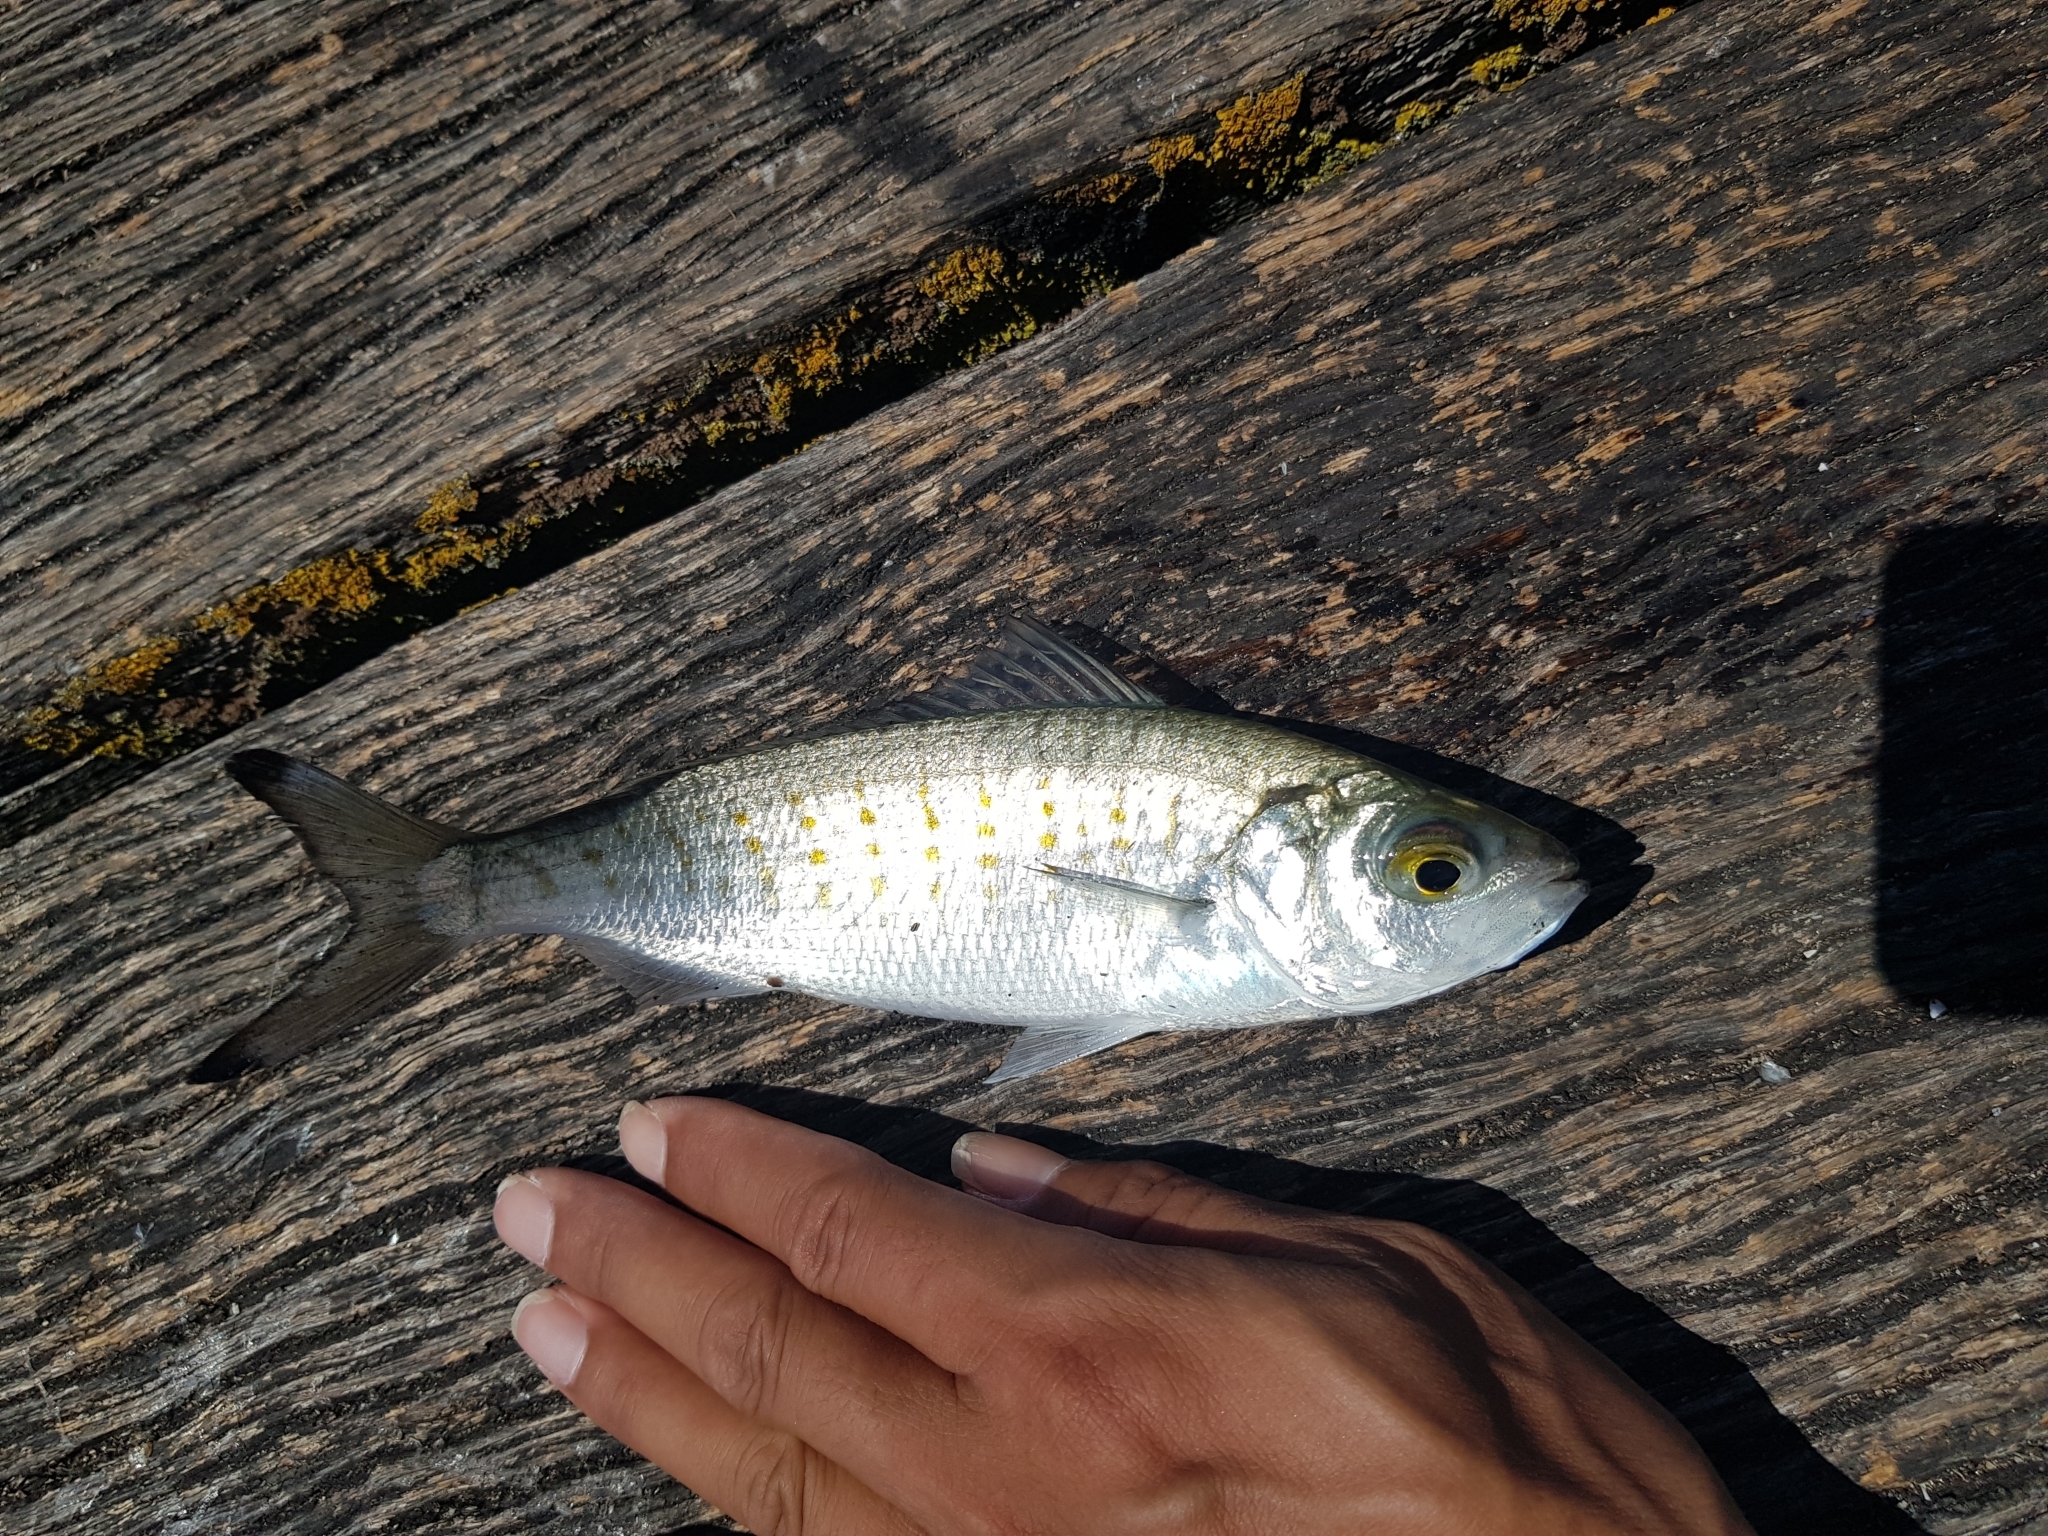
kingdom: Animalia
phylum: Chordata
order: Perciformes
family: Arripidae
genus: Arripis
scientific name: Arripis georgianus
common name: Australian herring
